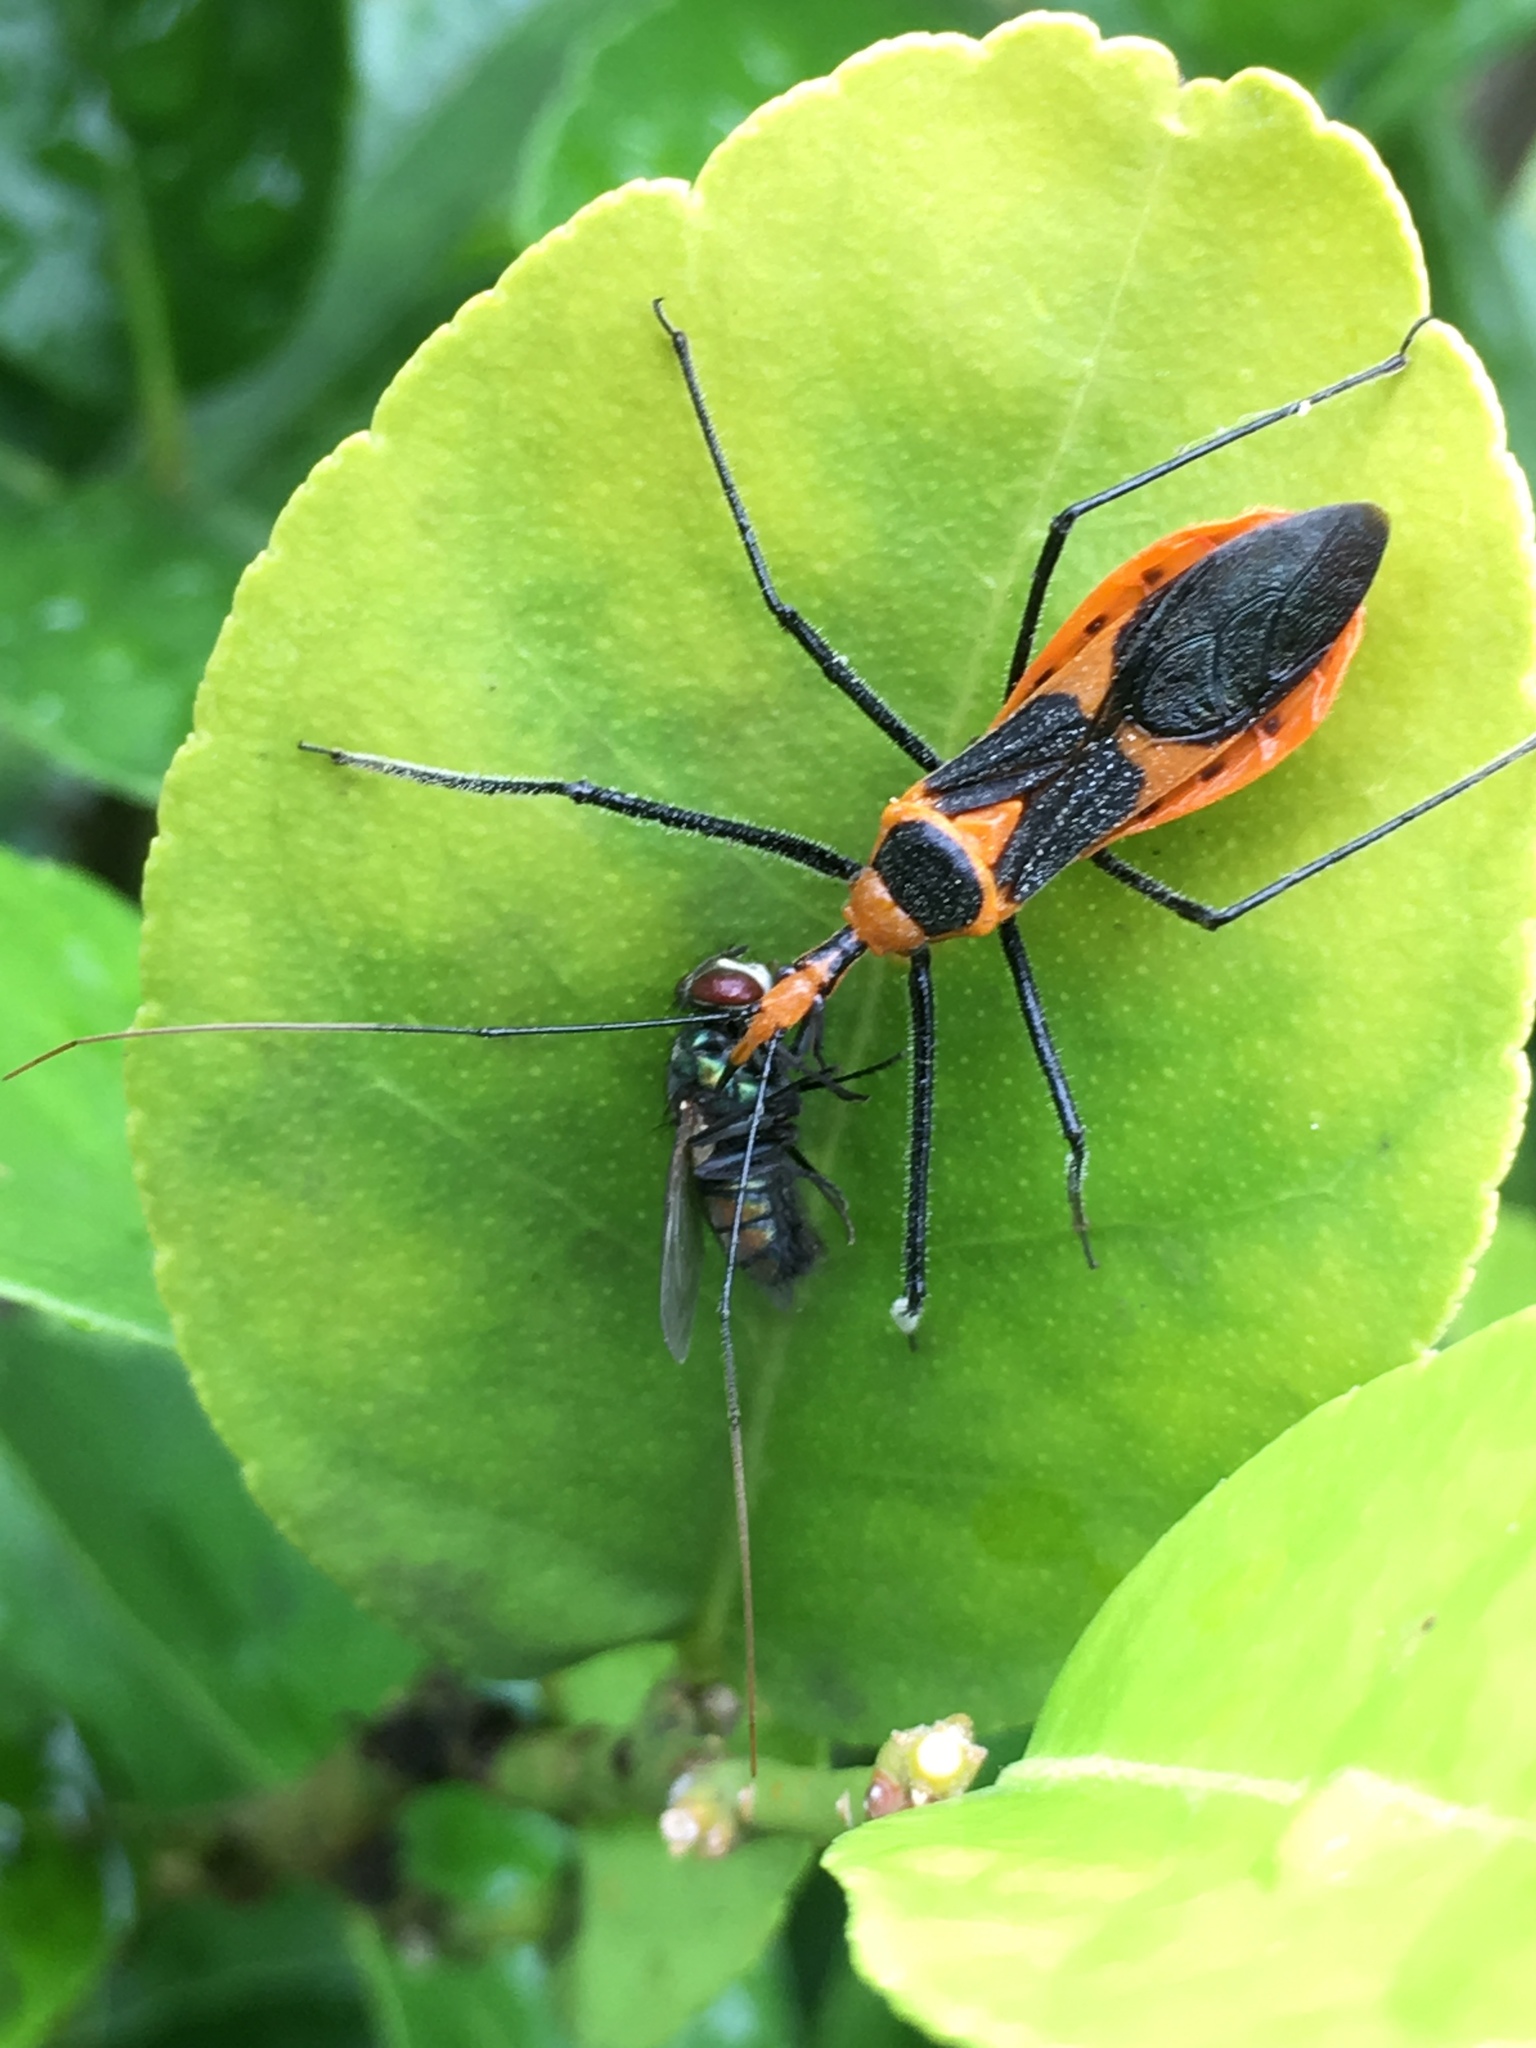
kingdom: Animalia
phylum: Arthropoda
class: Insecta
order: Hemiptera
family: Reduviidae
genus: Zelus
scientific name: Zelus longipes
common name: Milkweed assassin bug
